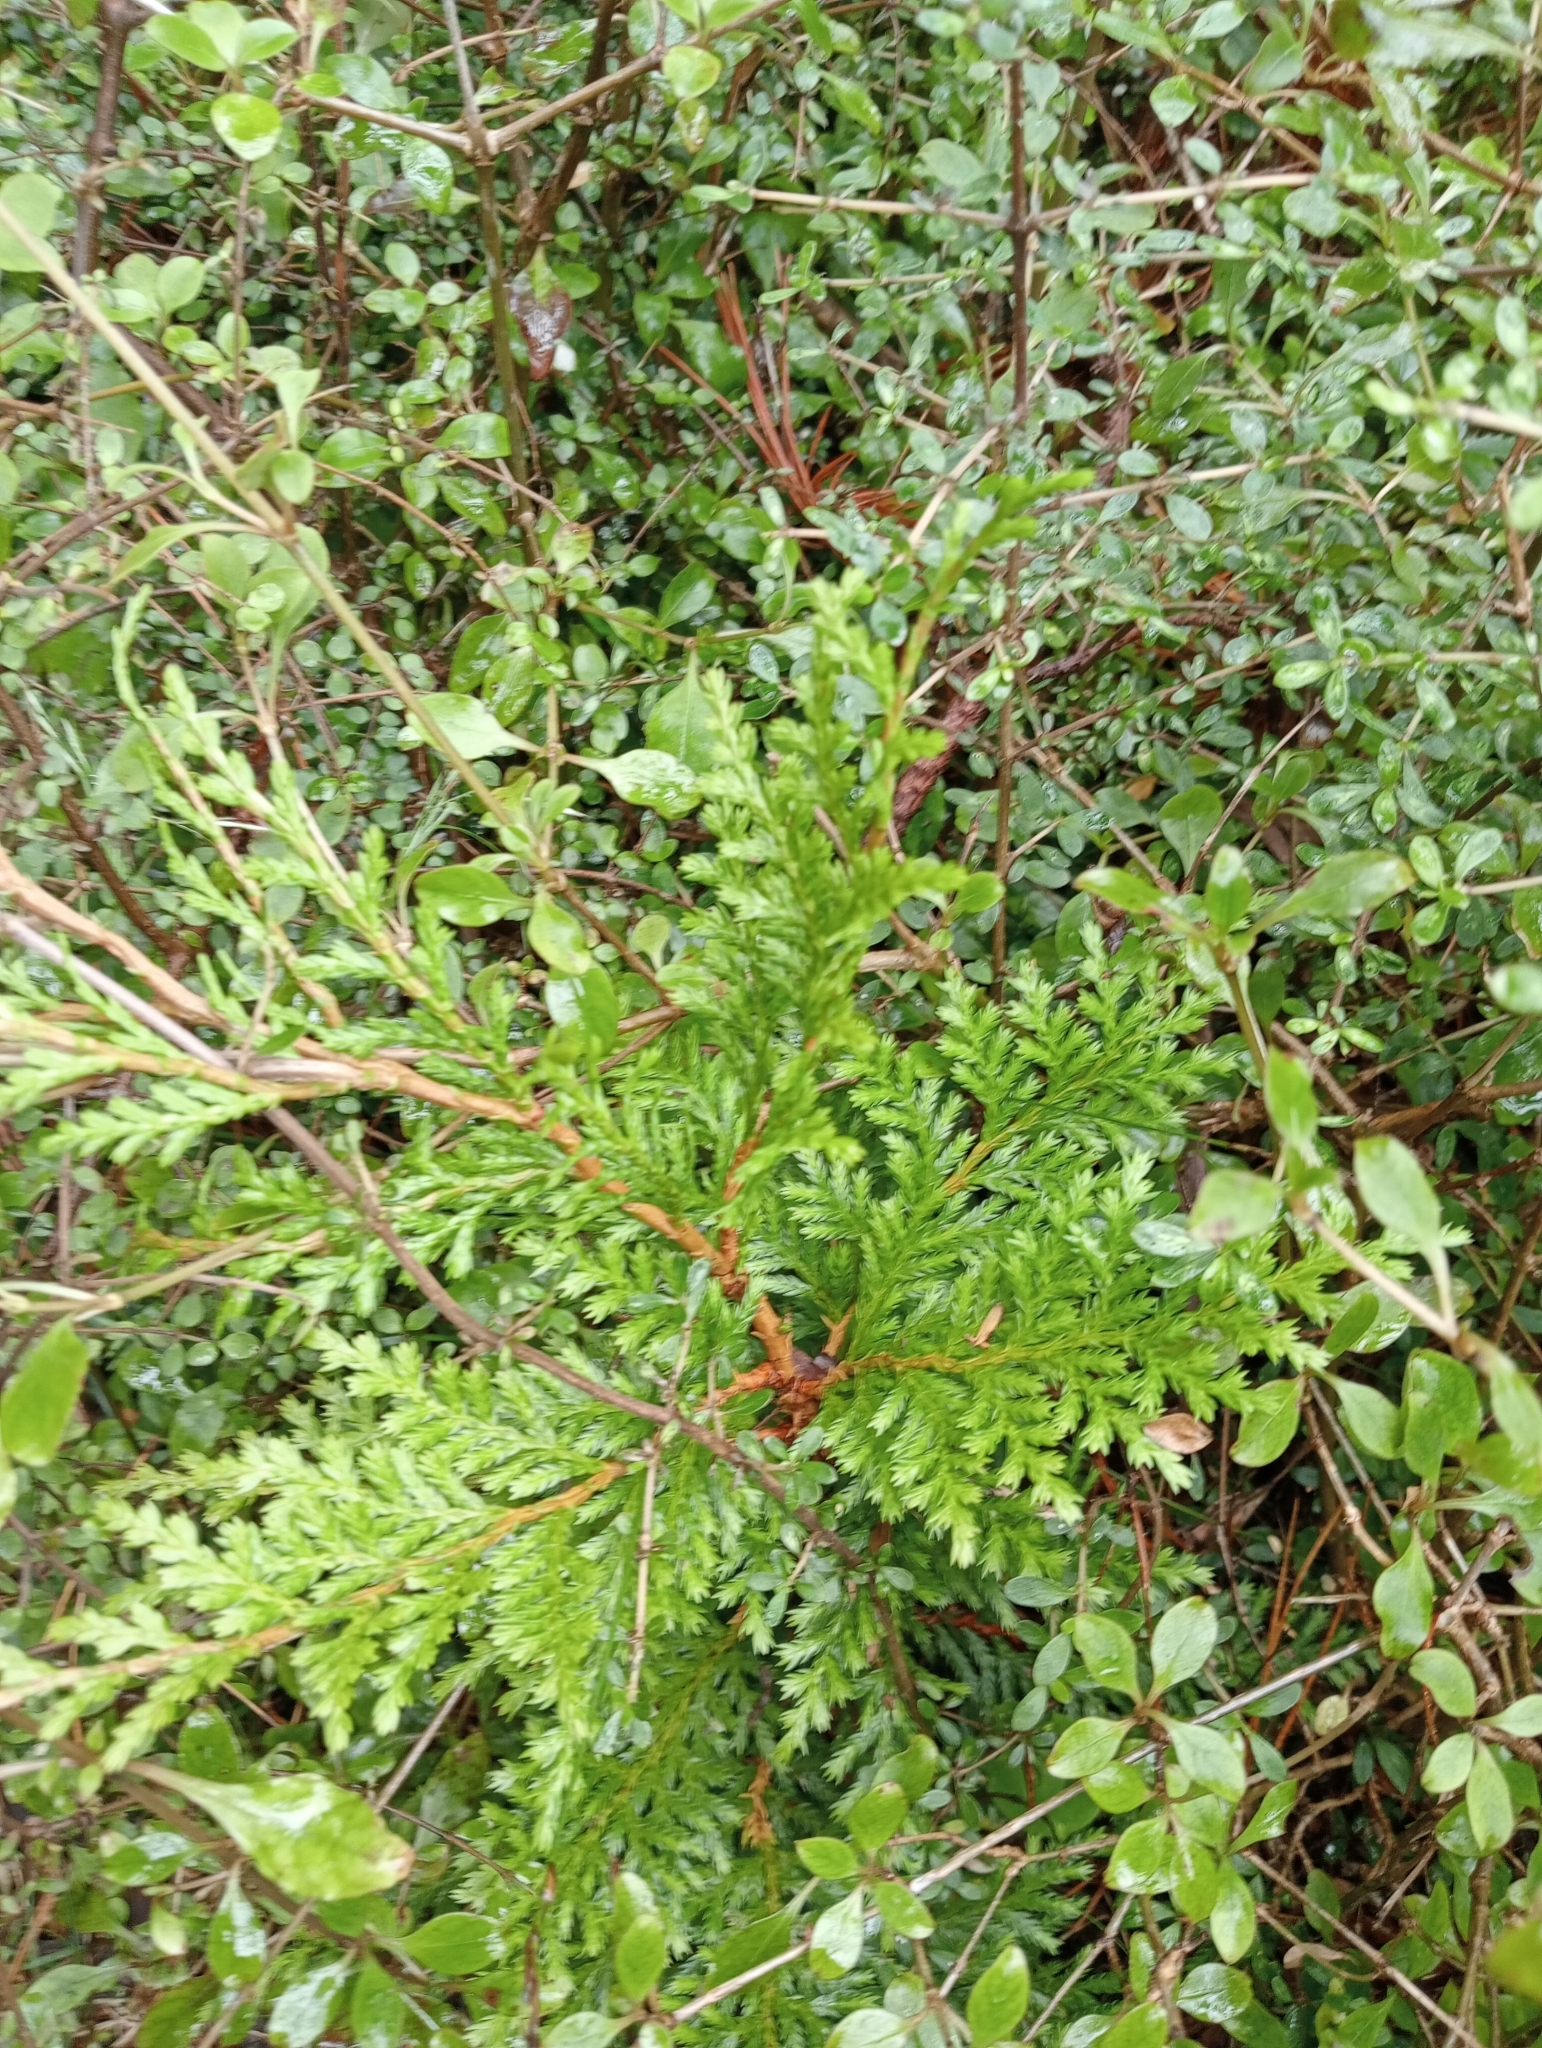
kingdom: Plantae
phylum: Tracheophyta
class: Pinopsida
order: Pinales
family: Cupressaceae
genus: Libocedrus
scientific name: Libocedrus bidwillii
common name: Cedar
